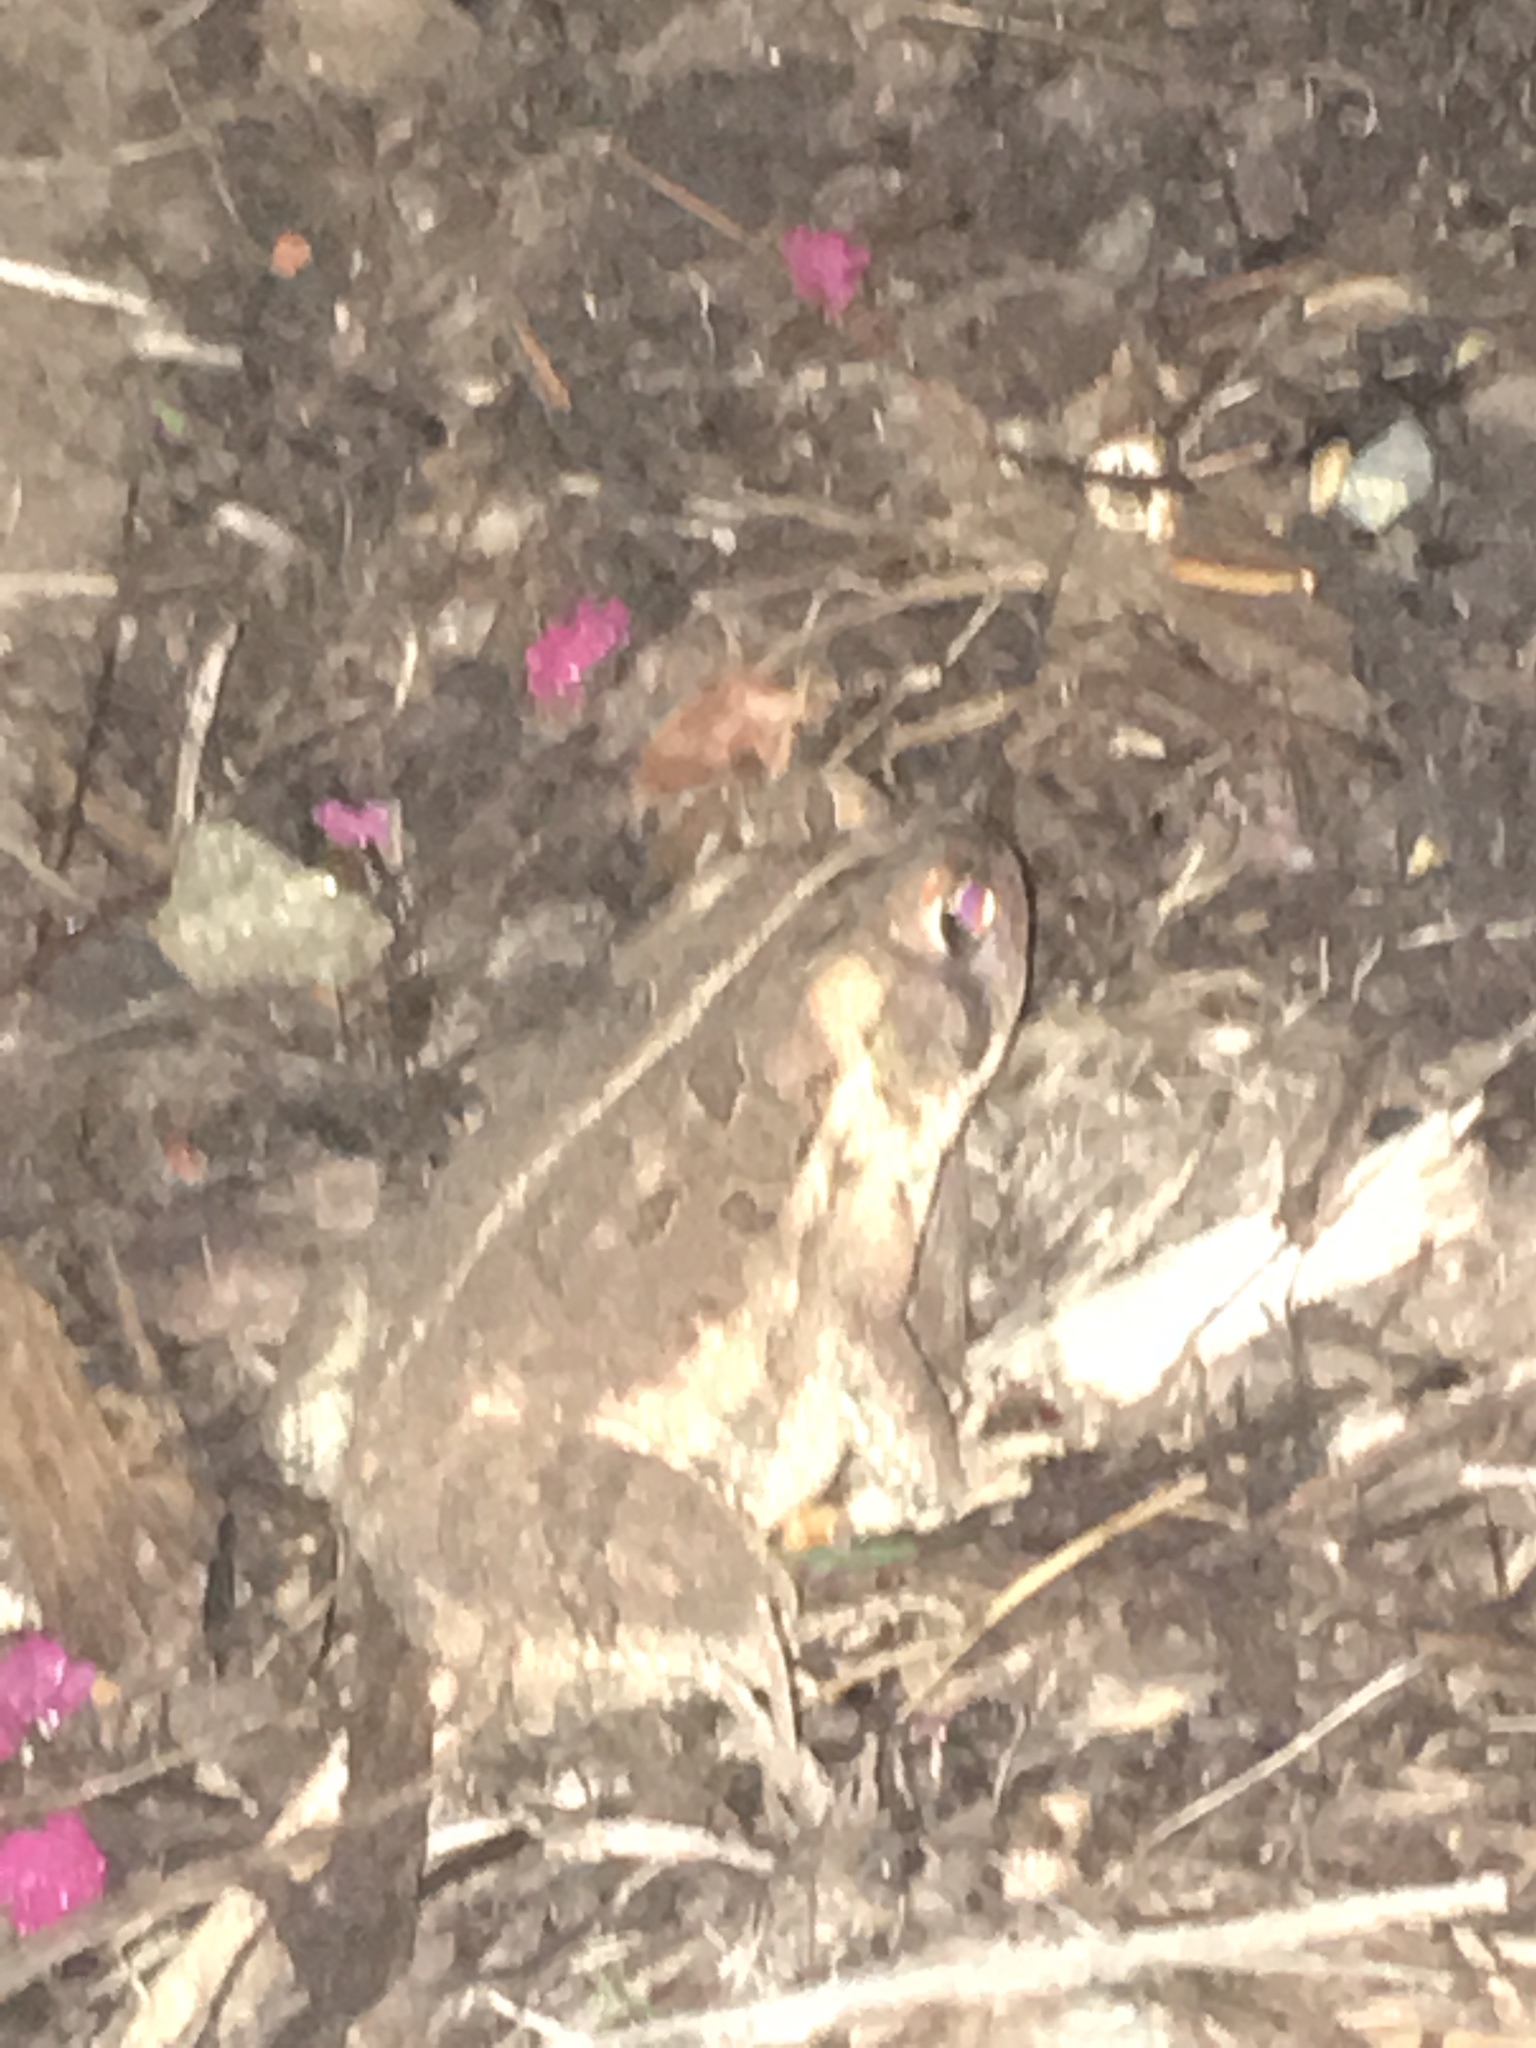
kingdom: Animalia
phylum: Chordata
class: Amphibia
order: Anura
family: Bufonidae
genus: Anaxyrus
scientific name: Anaxyrus fowleri
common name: Fowler's toad
